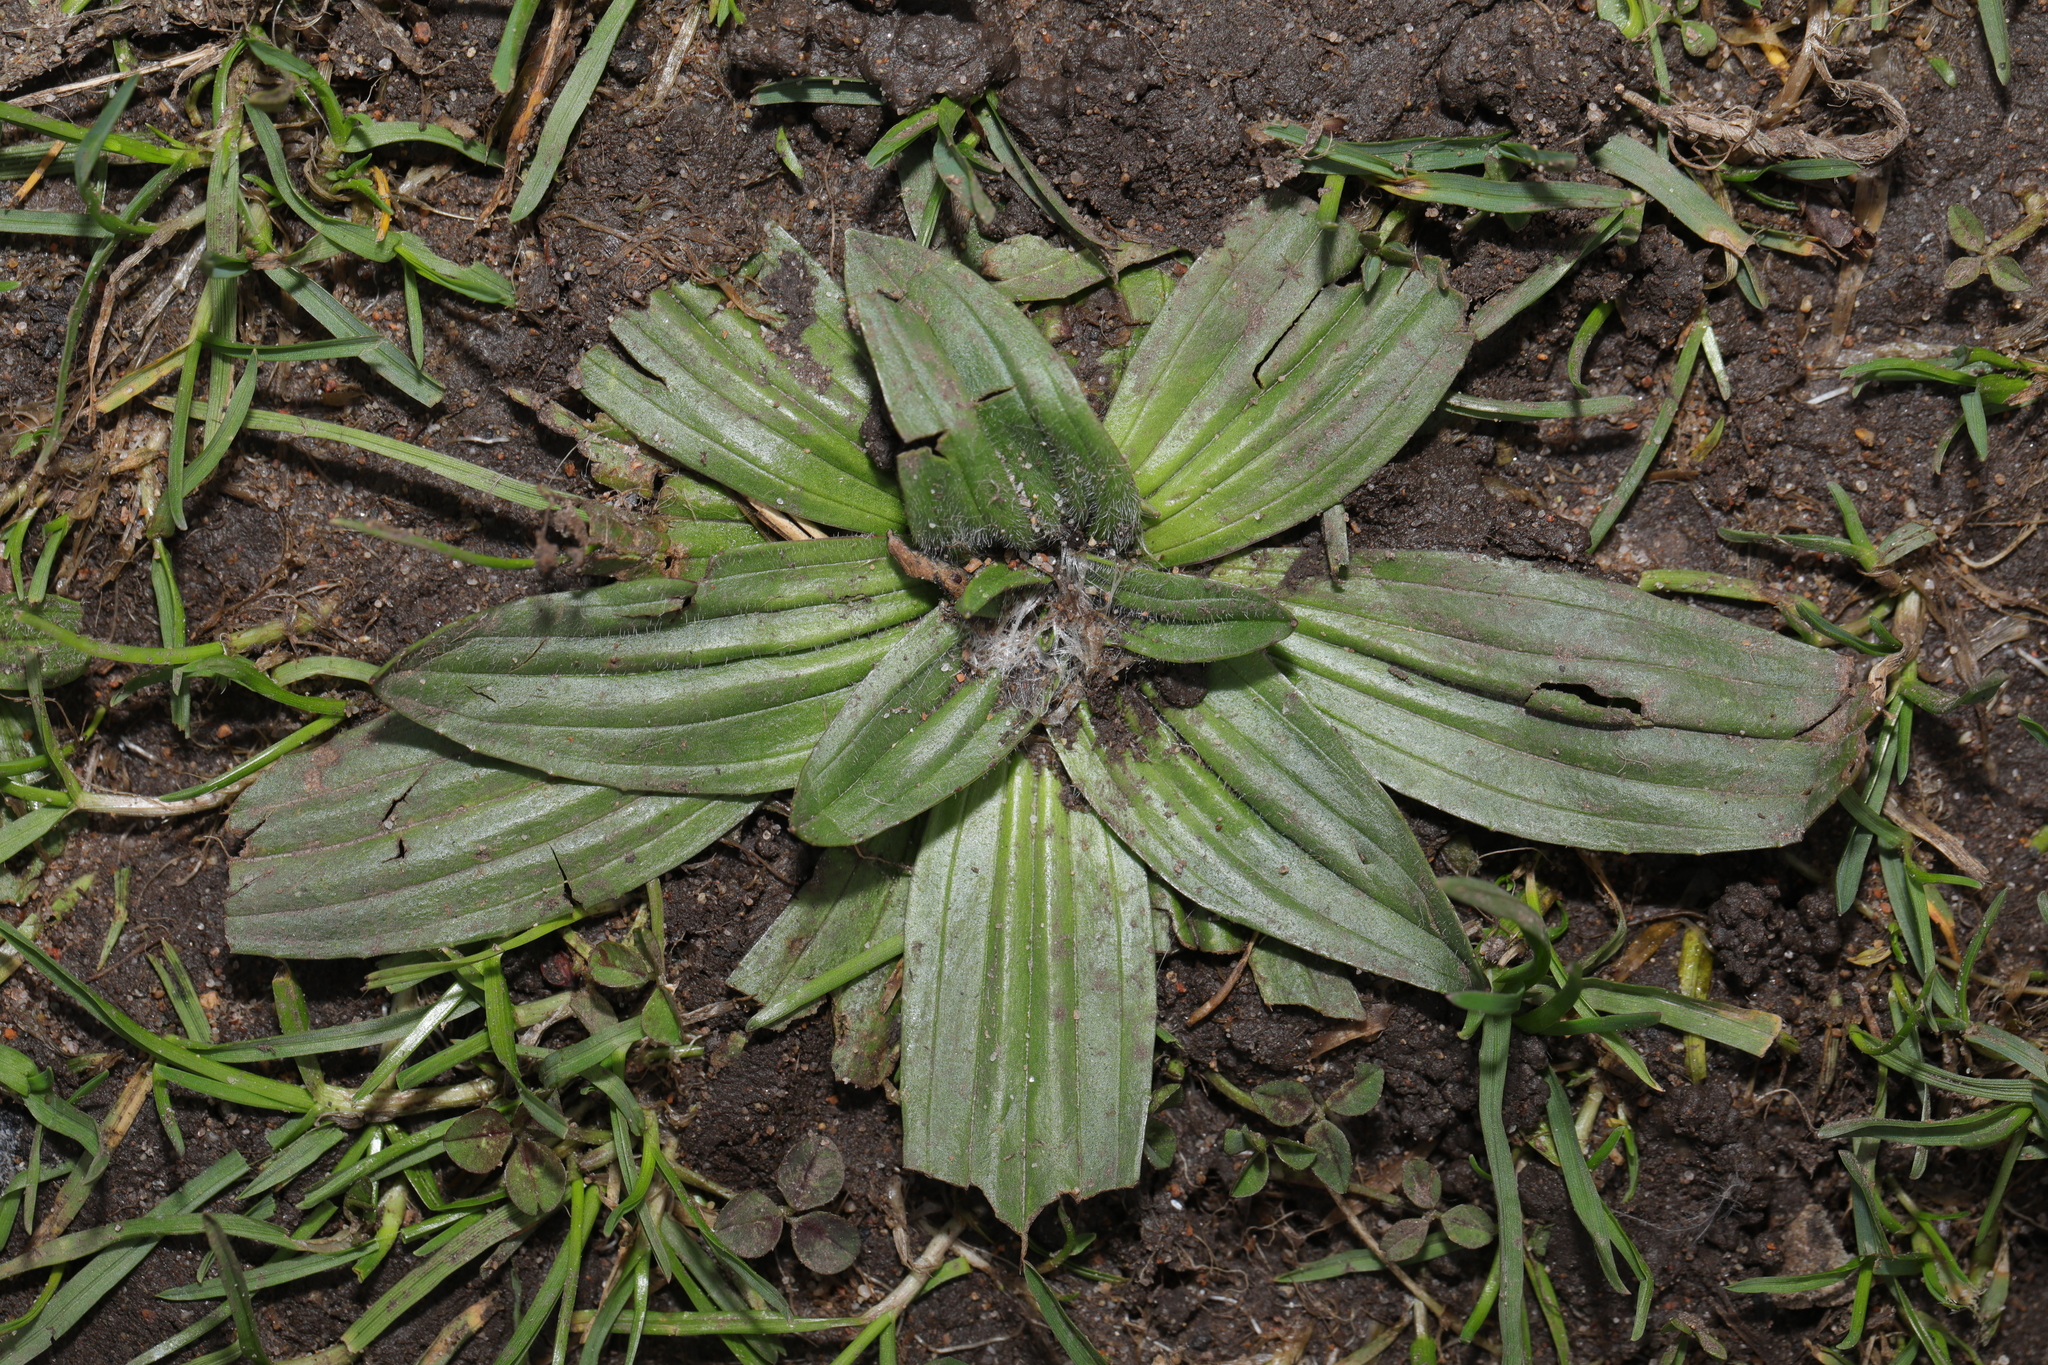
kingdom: Plantae
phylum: Tracheophyta
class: Magnoliopsida
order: Lamiales
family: Plantaginaceae
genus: Plantago
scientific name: Plantago lanceolata
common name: Ribwort plantain
